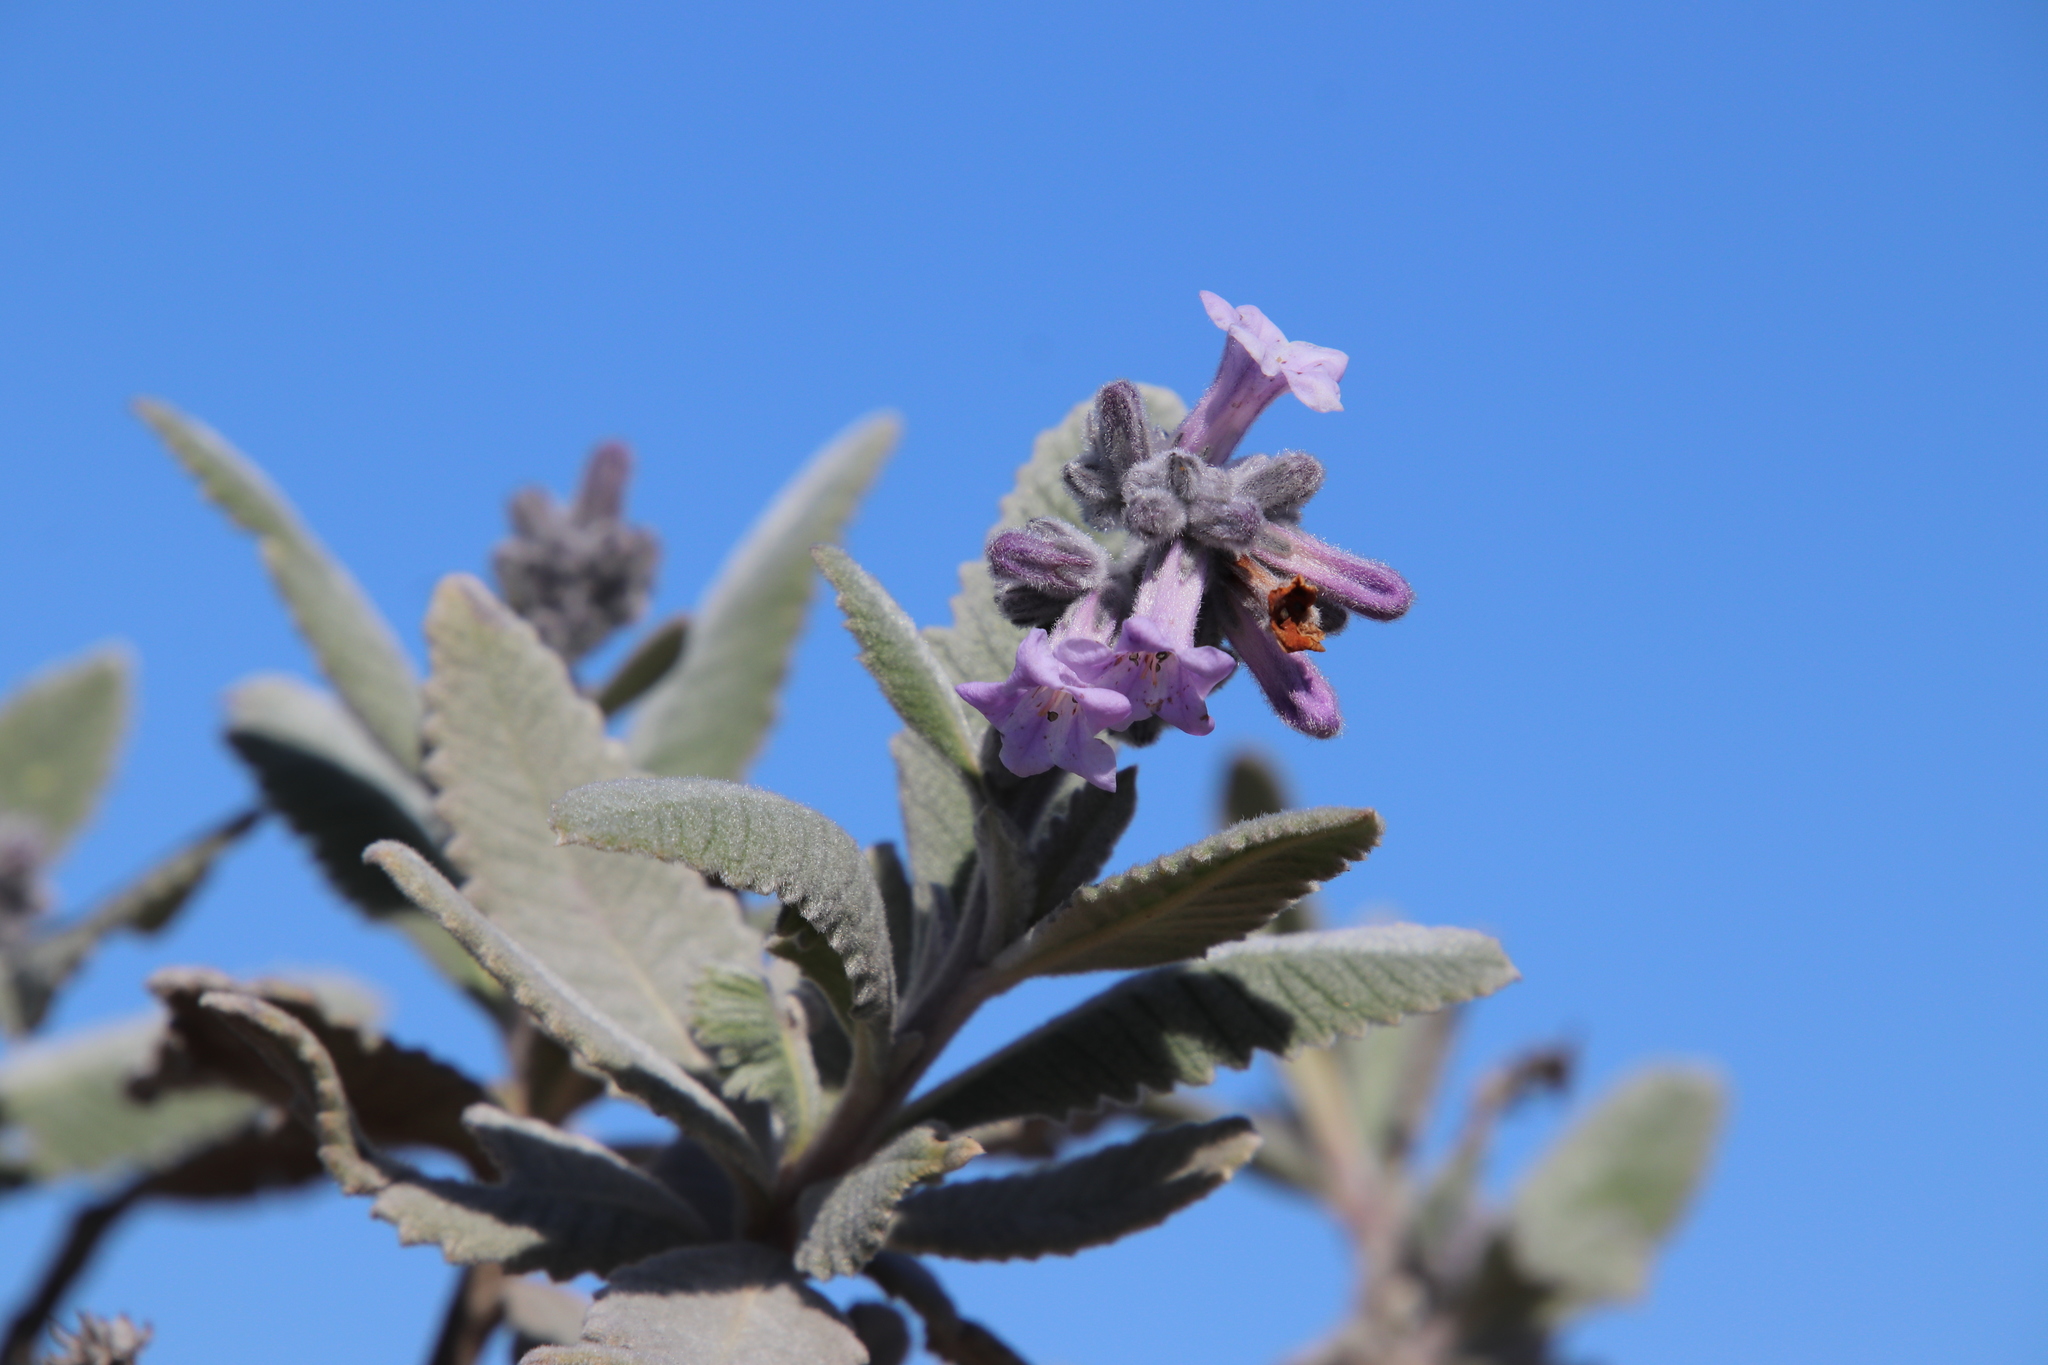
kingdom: Plantae
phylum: Tracheophyta
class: Magnoliopsida
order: Boraginales
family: Namaceae
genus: Eriodictyon
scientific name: Eriodictyon crassifolium
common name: Thick-leaf yerba-santa
